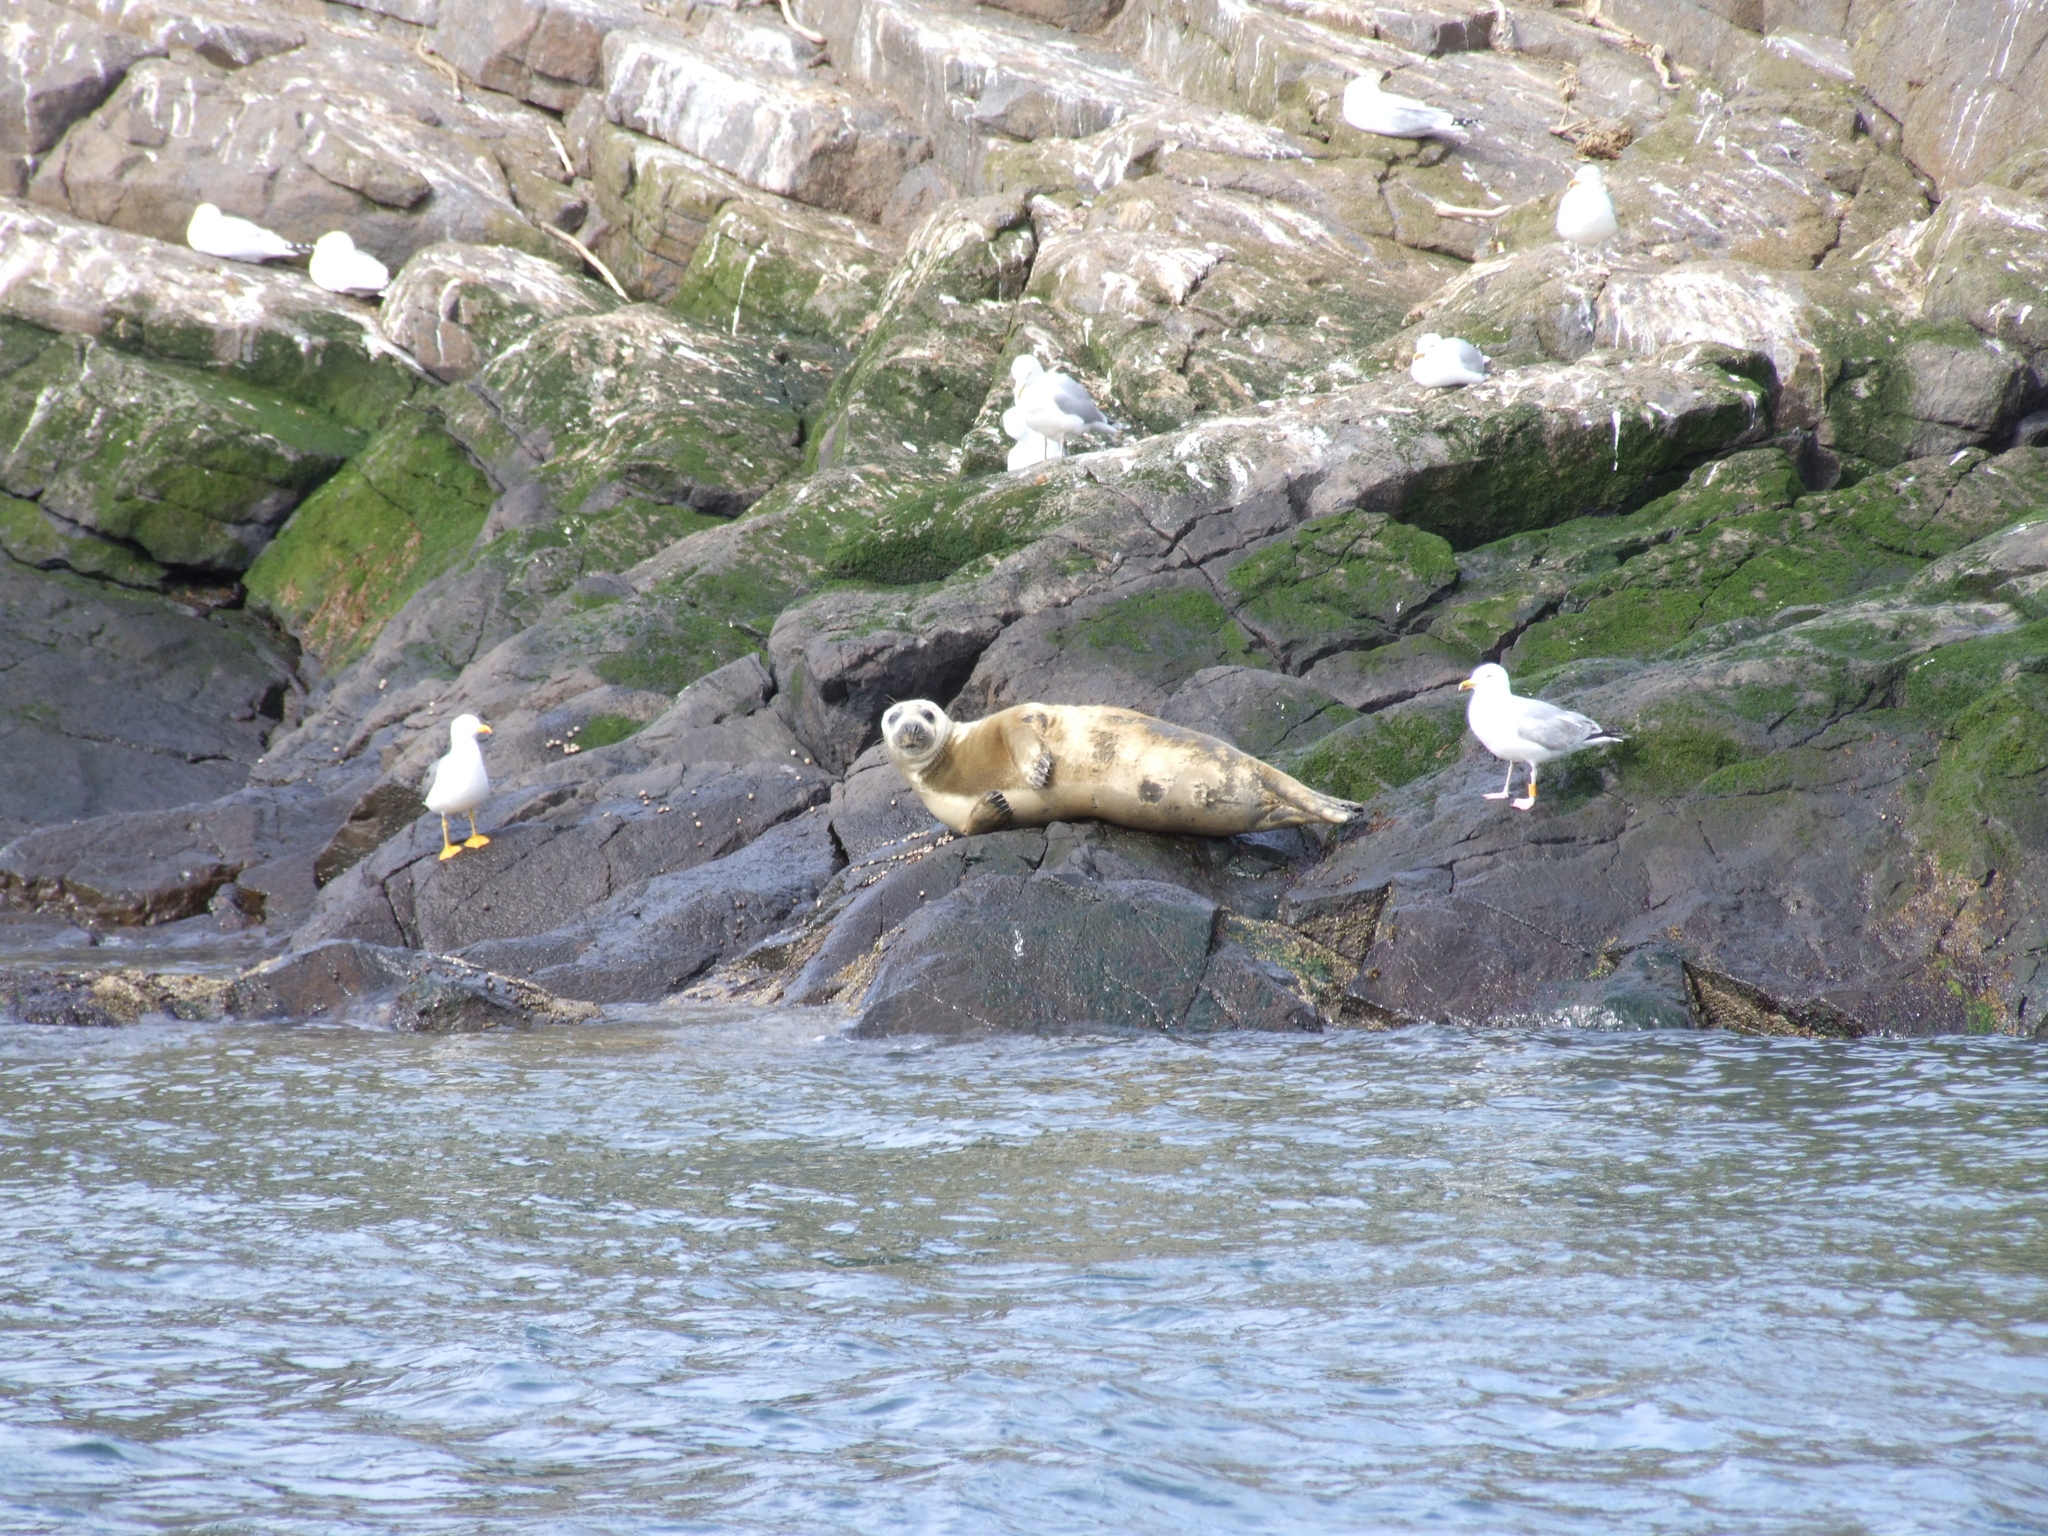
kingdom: Animalia
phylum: Chordata
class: Mammalia
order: Carnivora
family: Phocidae
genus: Halichoerus
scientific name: Halichoerus grypus
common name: Grey seal
